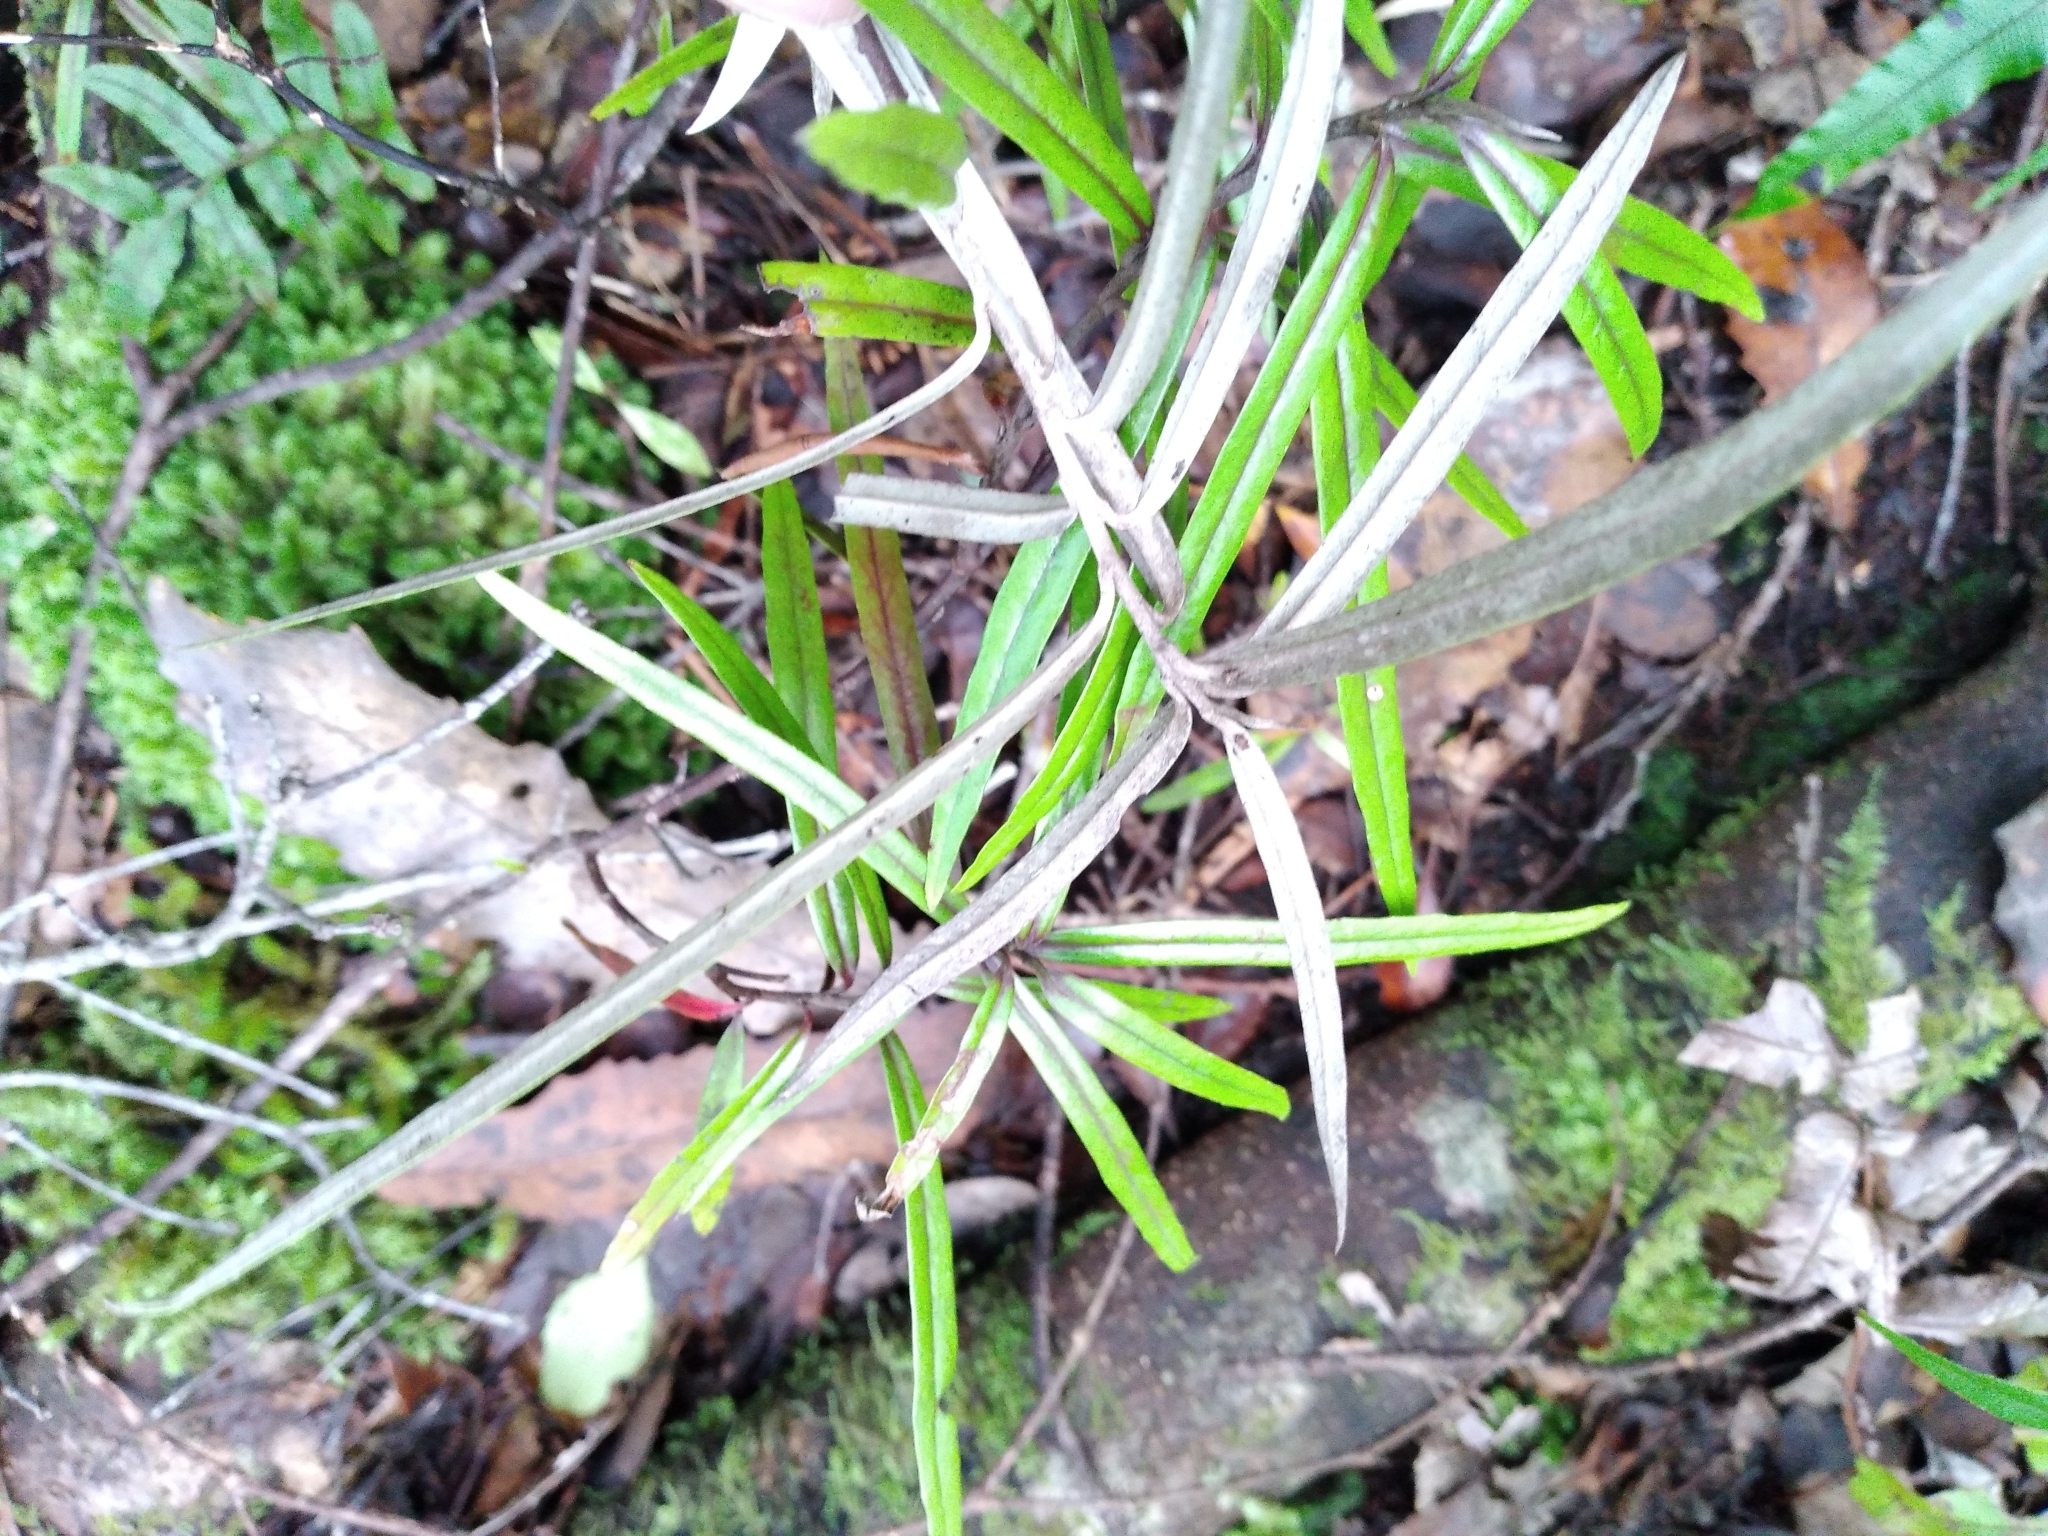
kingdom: Plantae
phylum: Tracheophyta
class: Magnoliopsida
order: Asterales
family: Argophyllaceae
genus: Corokia
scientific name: Corokia buddleioides
